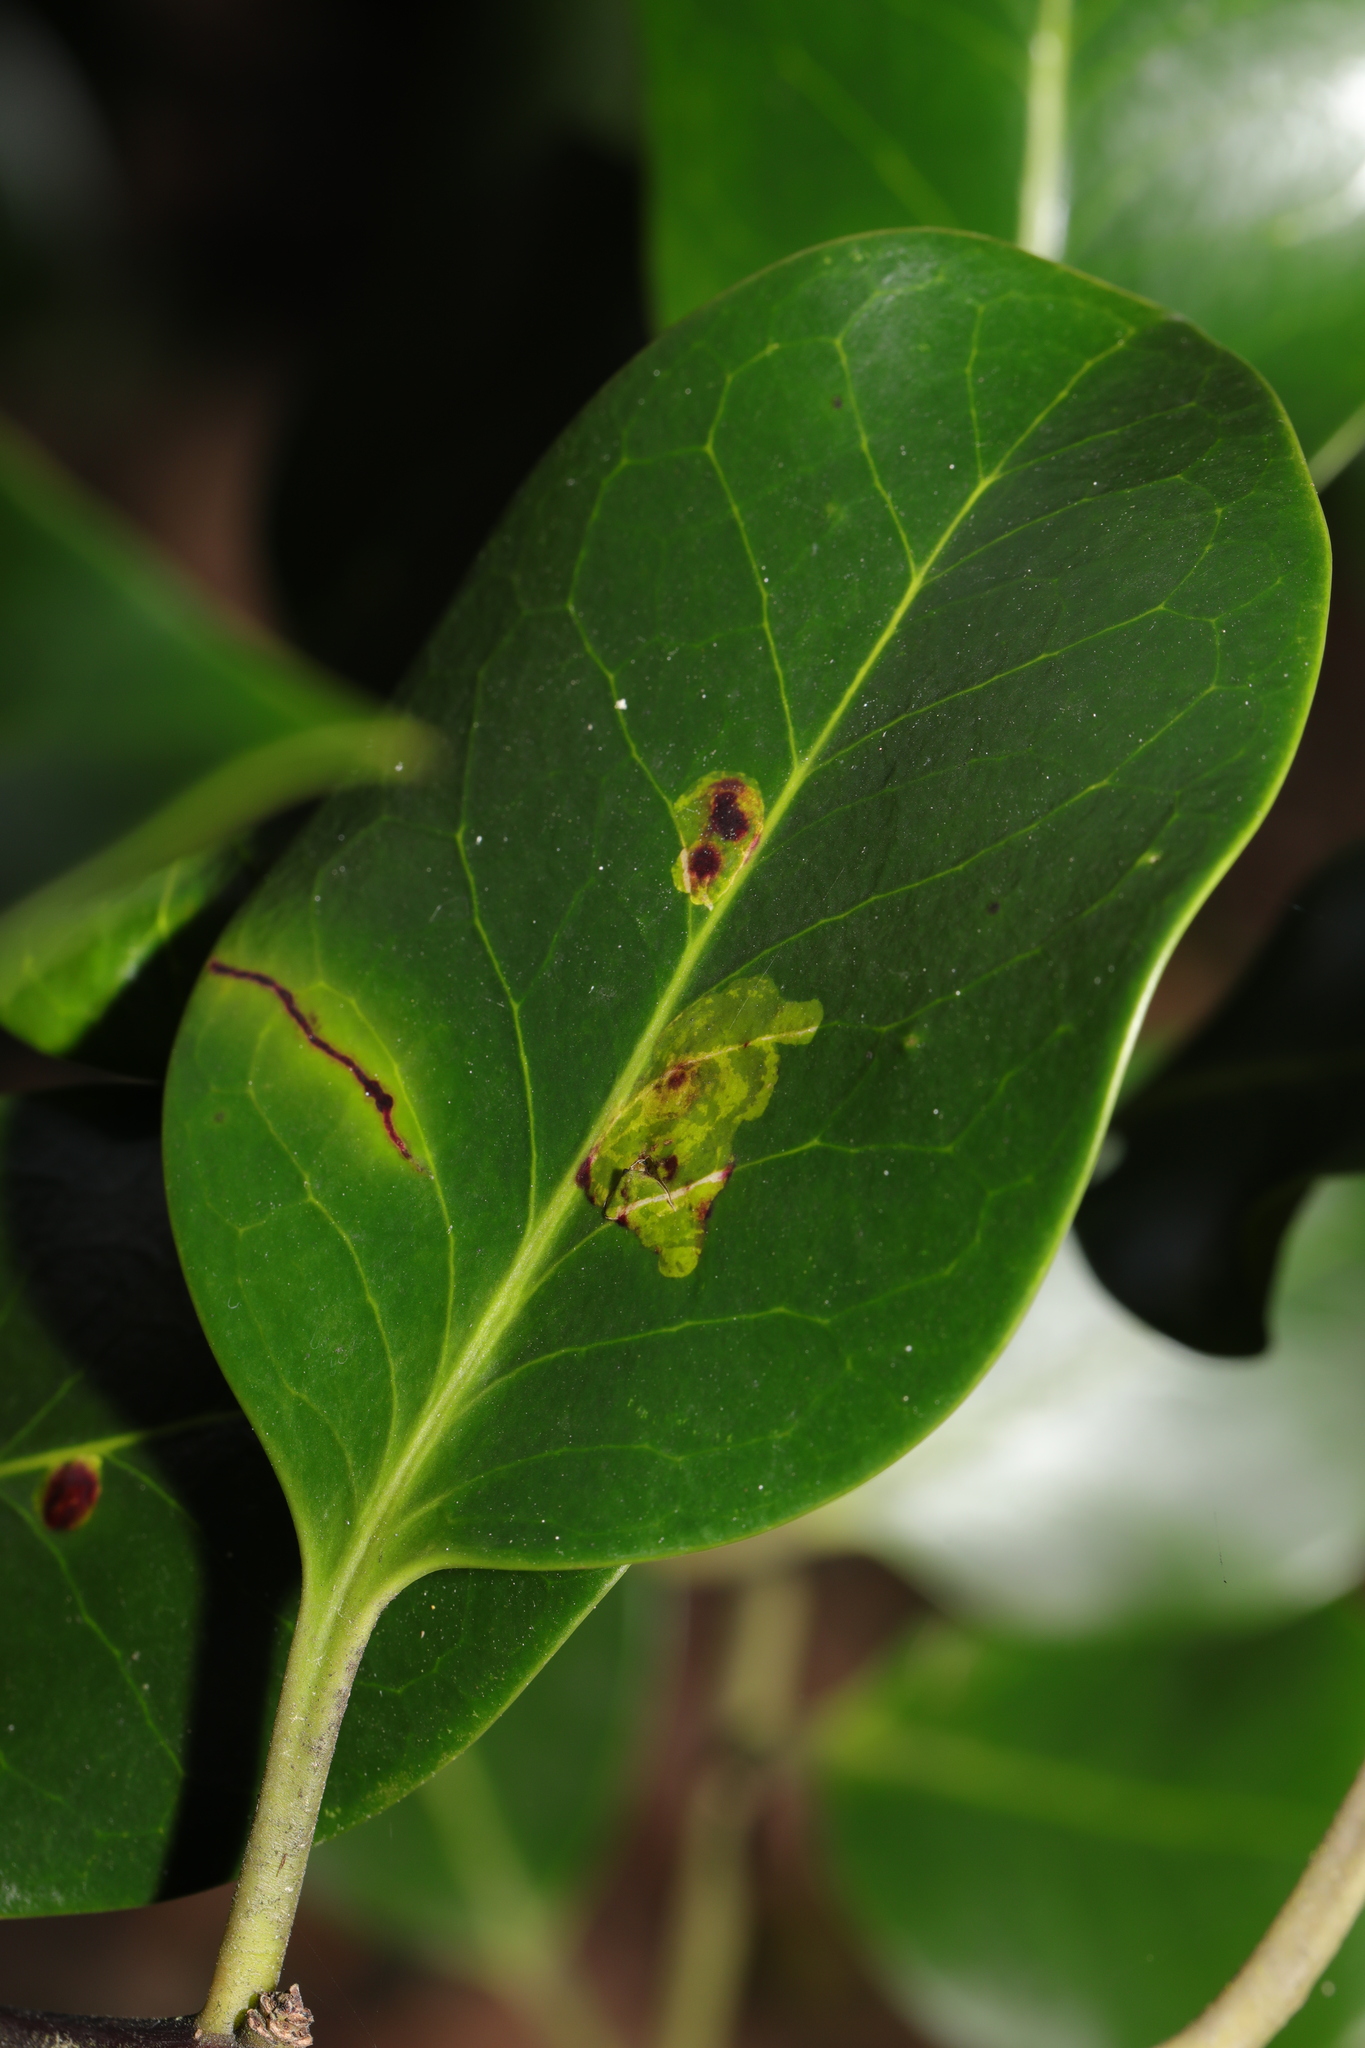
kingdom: Animalia
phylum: Arthropoda
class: Insecta
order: Diptera
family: Agromyzidae
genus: Phytomyza
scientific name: Phytomyza ilicis
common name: Holly leafminer
